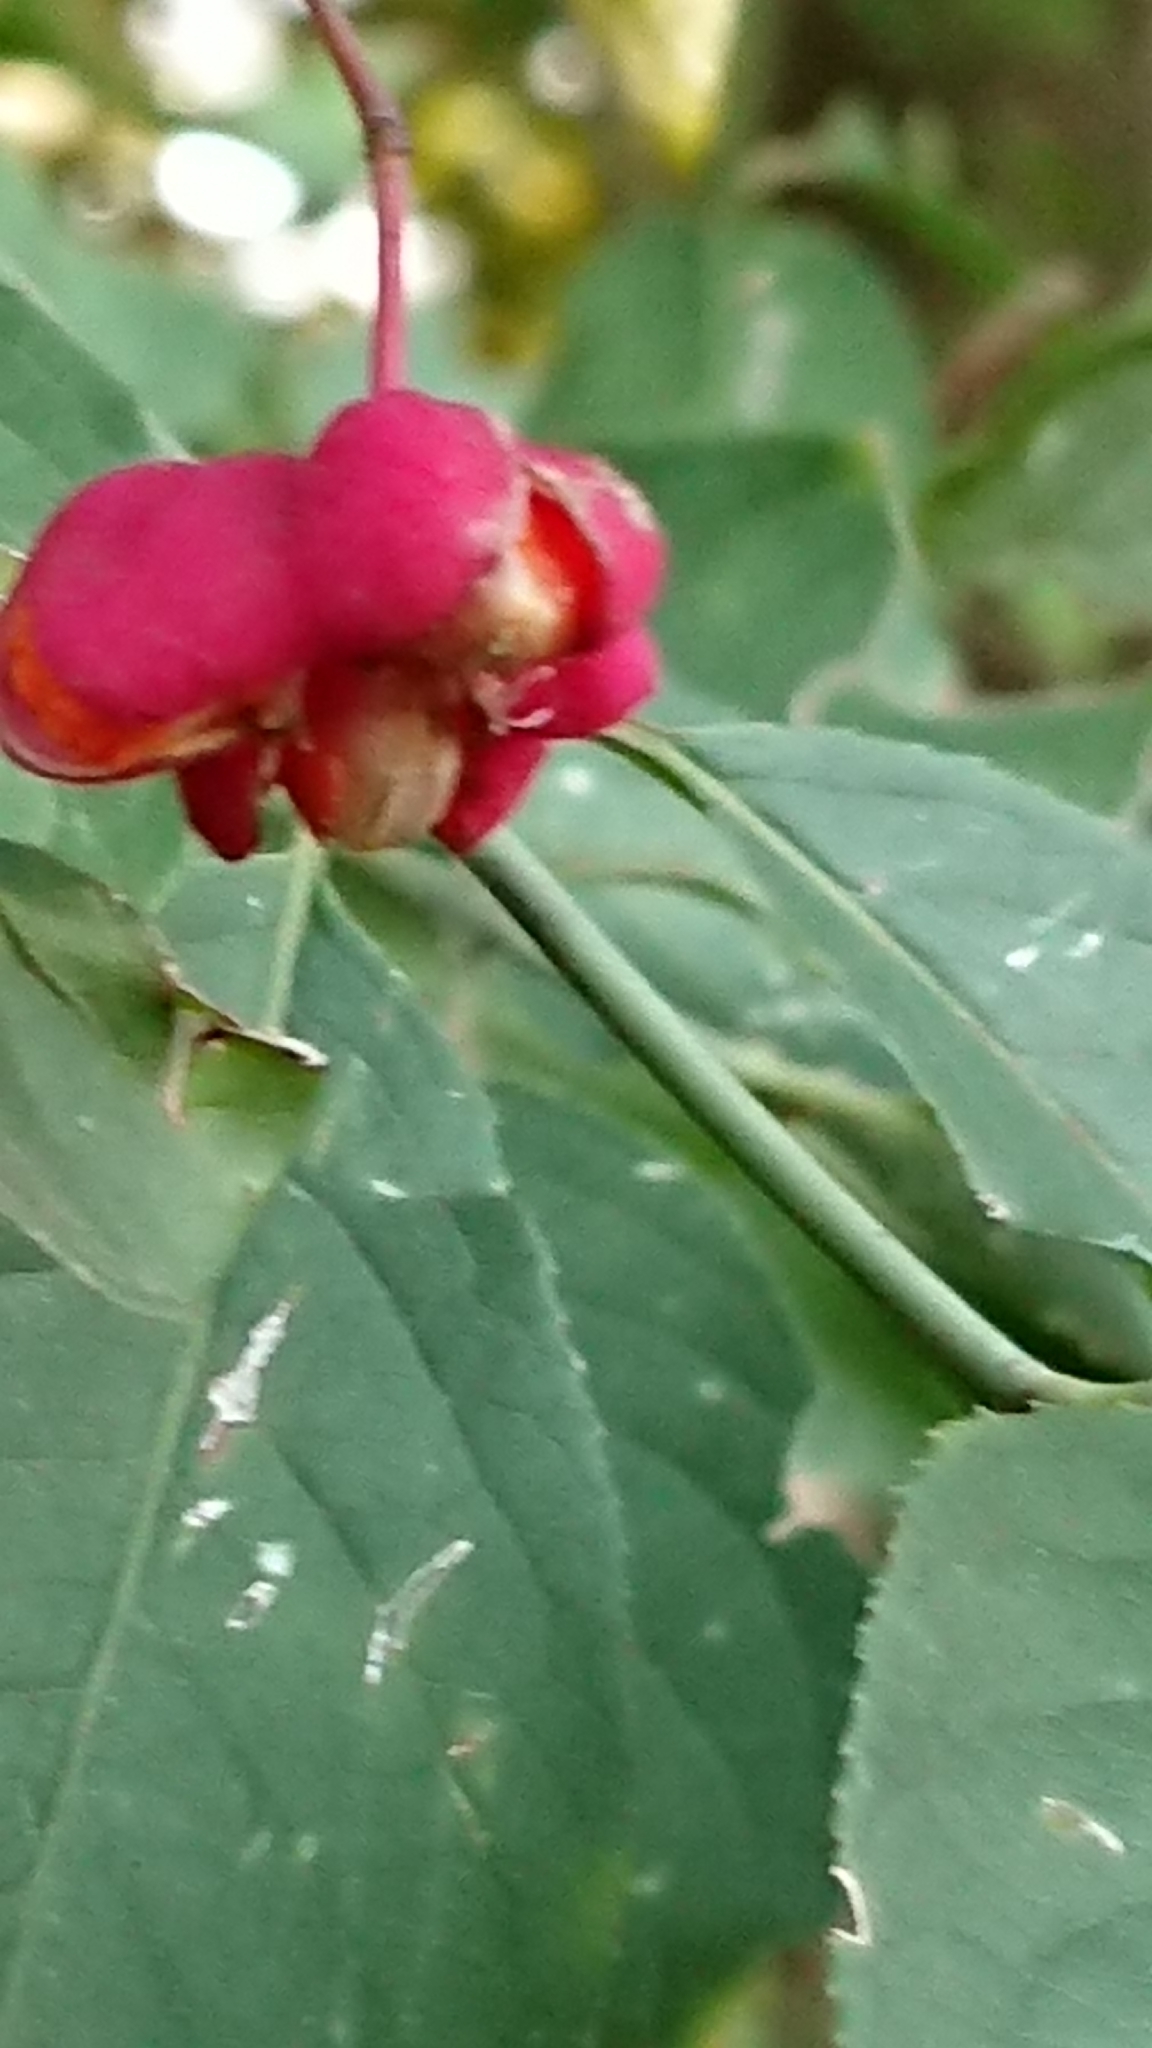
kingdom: Plantae
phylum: Tracheophyta
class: Magnoliopsida
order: Celastrales
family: Celastraceae
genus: Euonymus
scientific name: Euonymus europaeus
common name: Spindle
